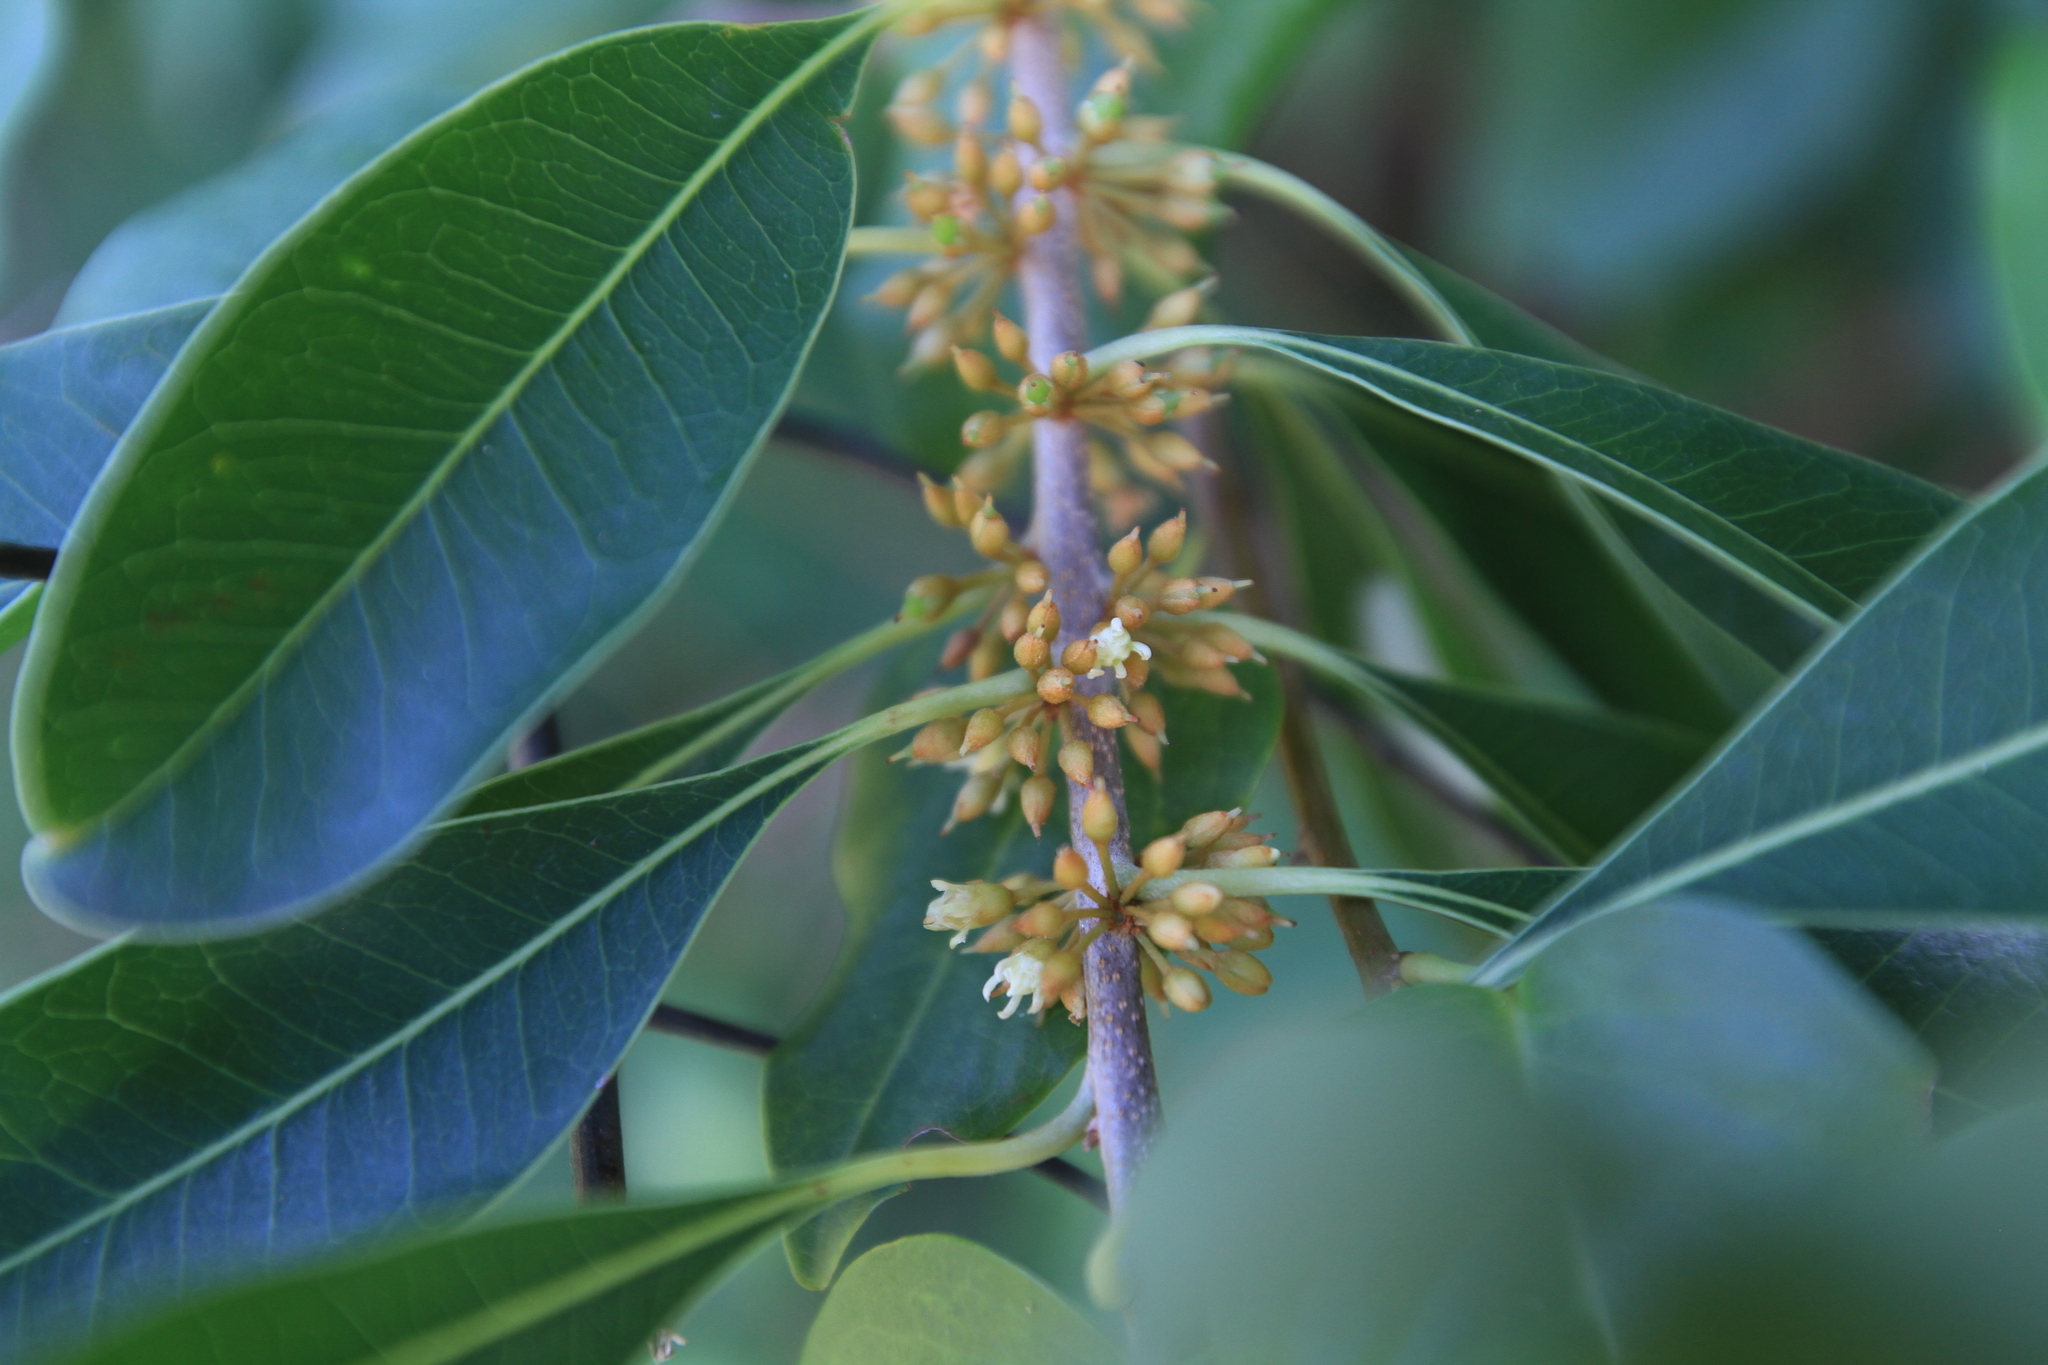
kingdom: Plantae
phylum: Tracheophyta
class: Magnoliopsida
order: Ericales
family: Sapotaceae
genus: Sideroxylon
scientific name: Sideroxylon salicifolium
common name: White bully
